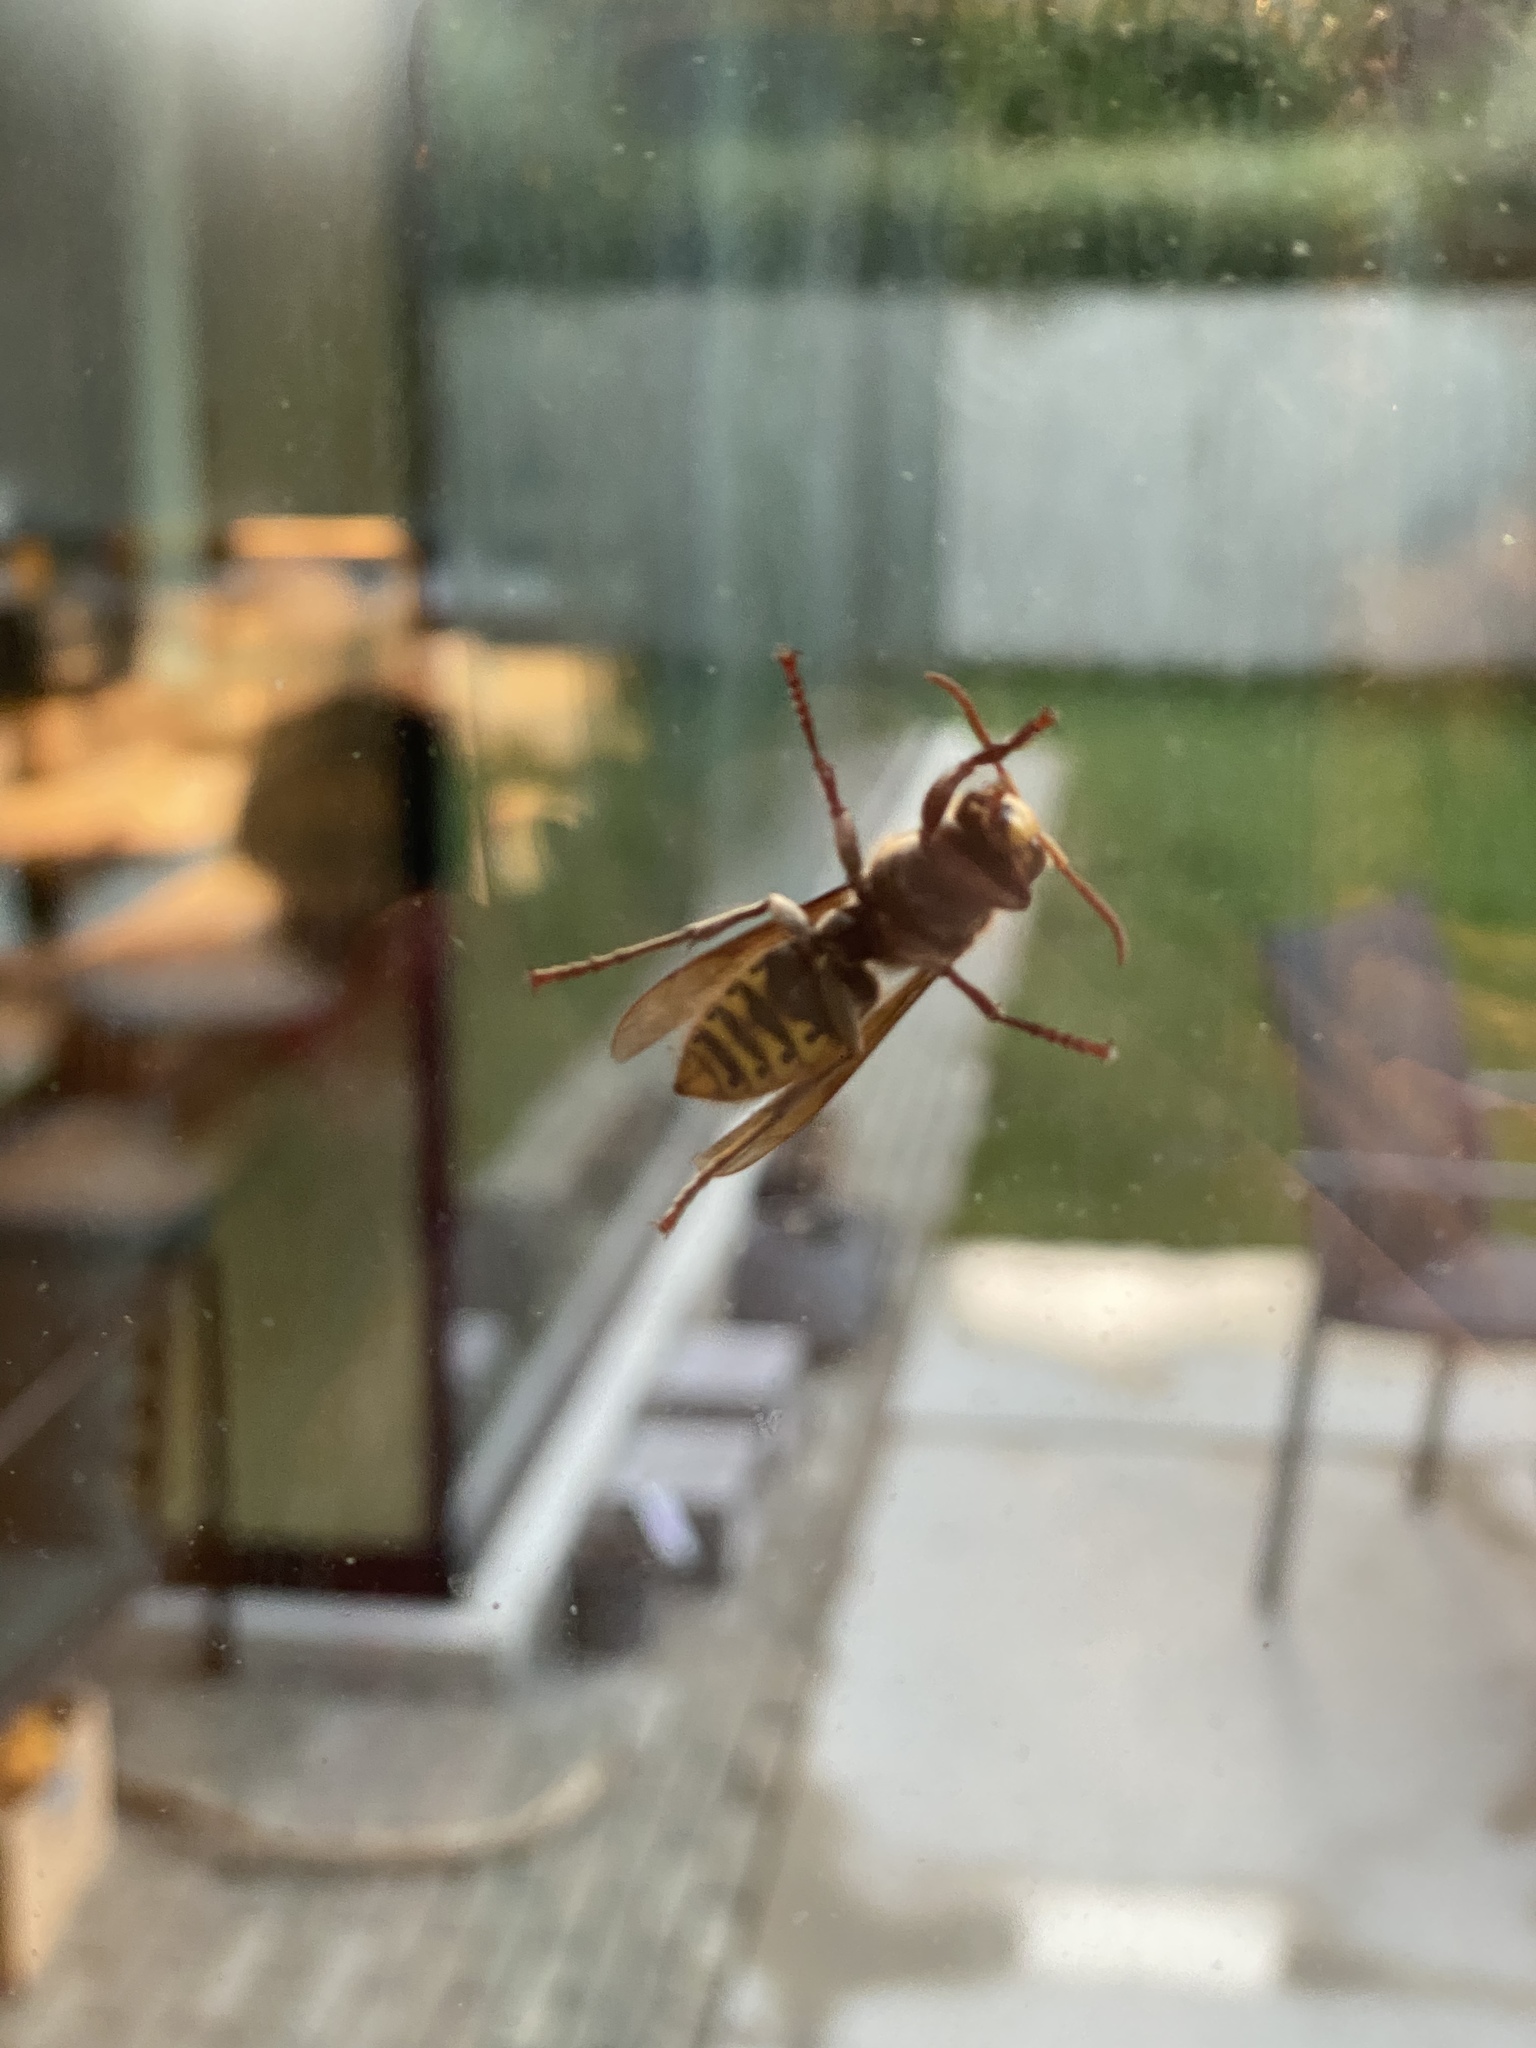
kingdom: Animalia
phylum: Arthropoda
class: Insecta
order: Hymenoptera
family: Vespidae
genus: Vespa
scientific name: Vespa crabro
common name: Hornet
